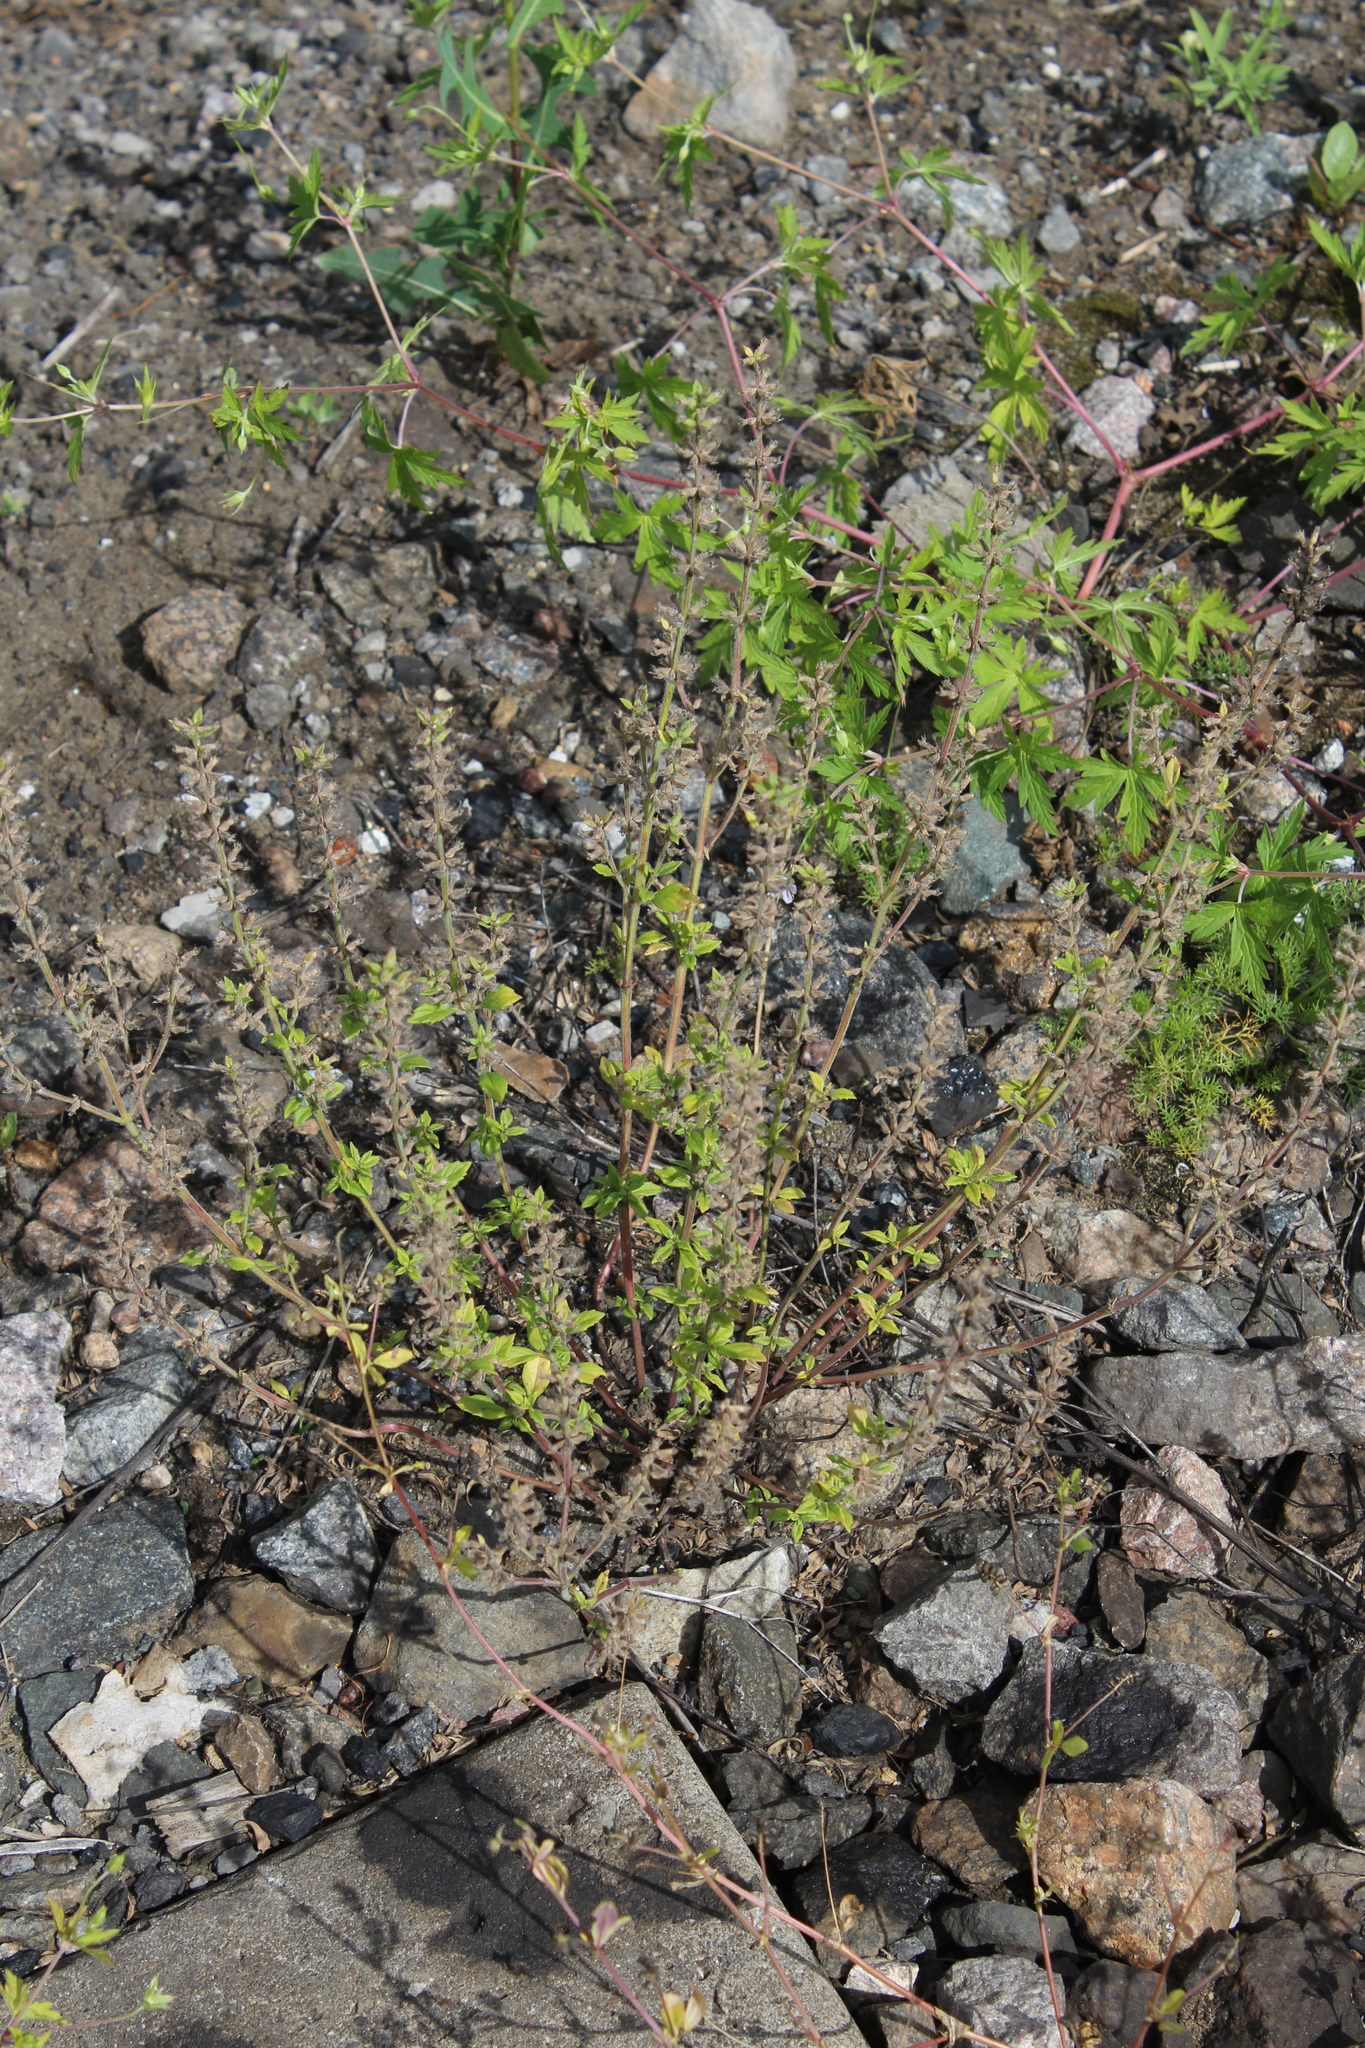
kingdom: Plantae
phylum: Tracheophyta
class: Magnoliopsida
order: Lamiales
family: Lamiaceae
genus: Clinopodium
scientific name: Clinopodium acinos
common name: Basil thyme
